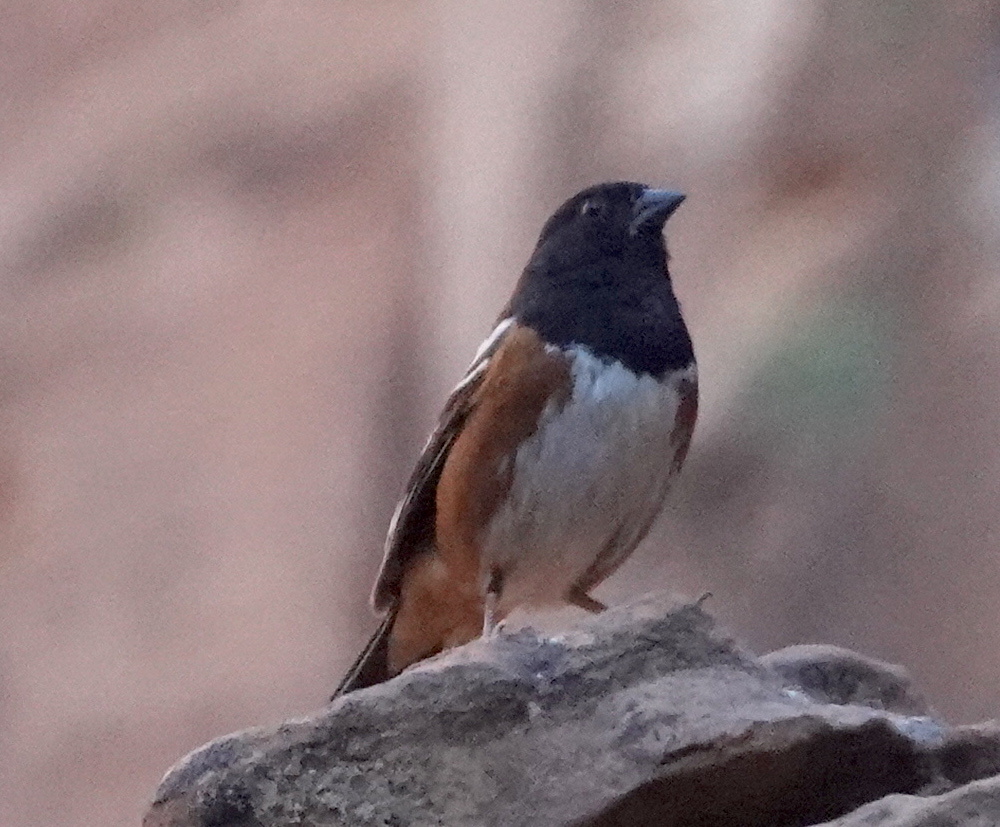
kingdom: Animalia
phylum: Chordata
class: Aves
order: Passeriformes
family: Passerellidae
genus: Pipilo
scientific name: Pipilo maculatus
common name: Spotted towhee
